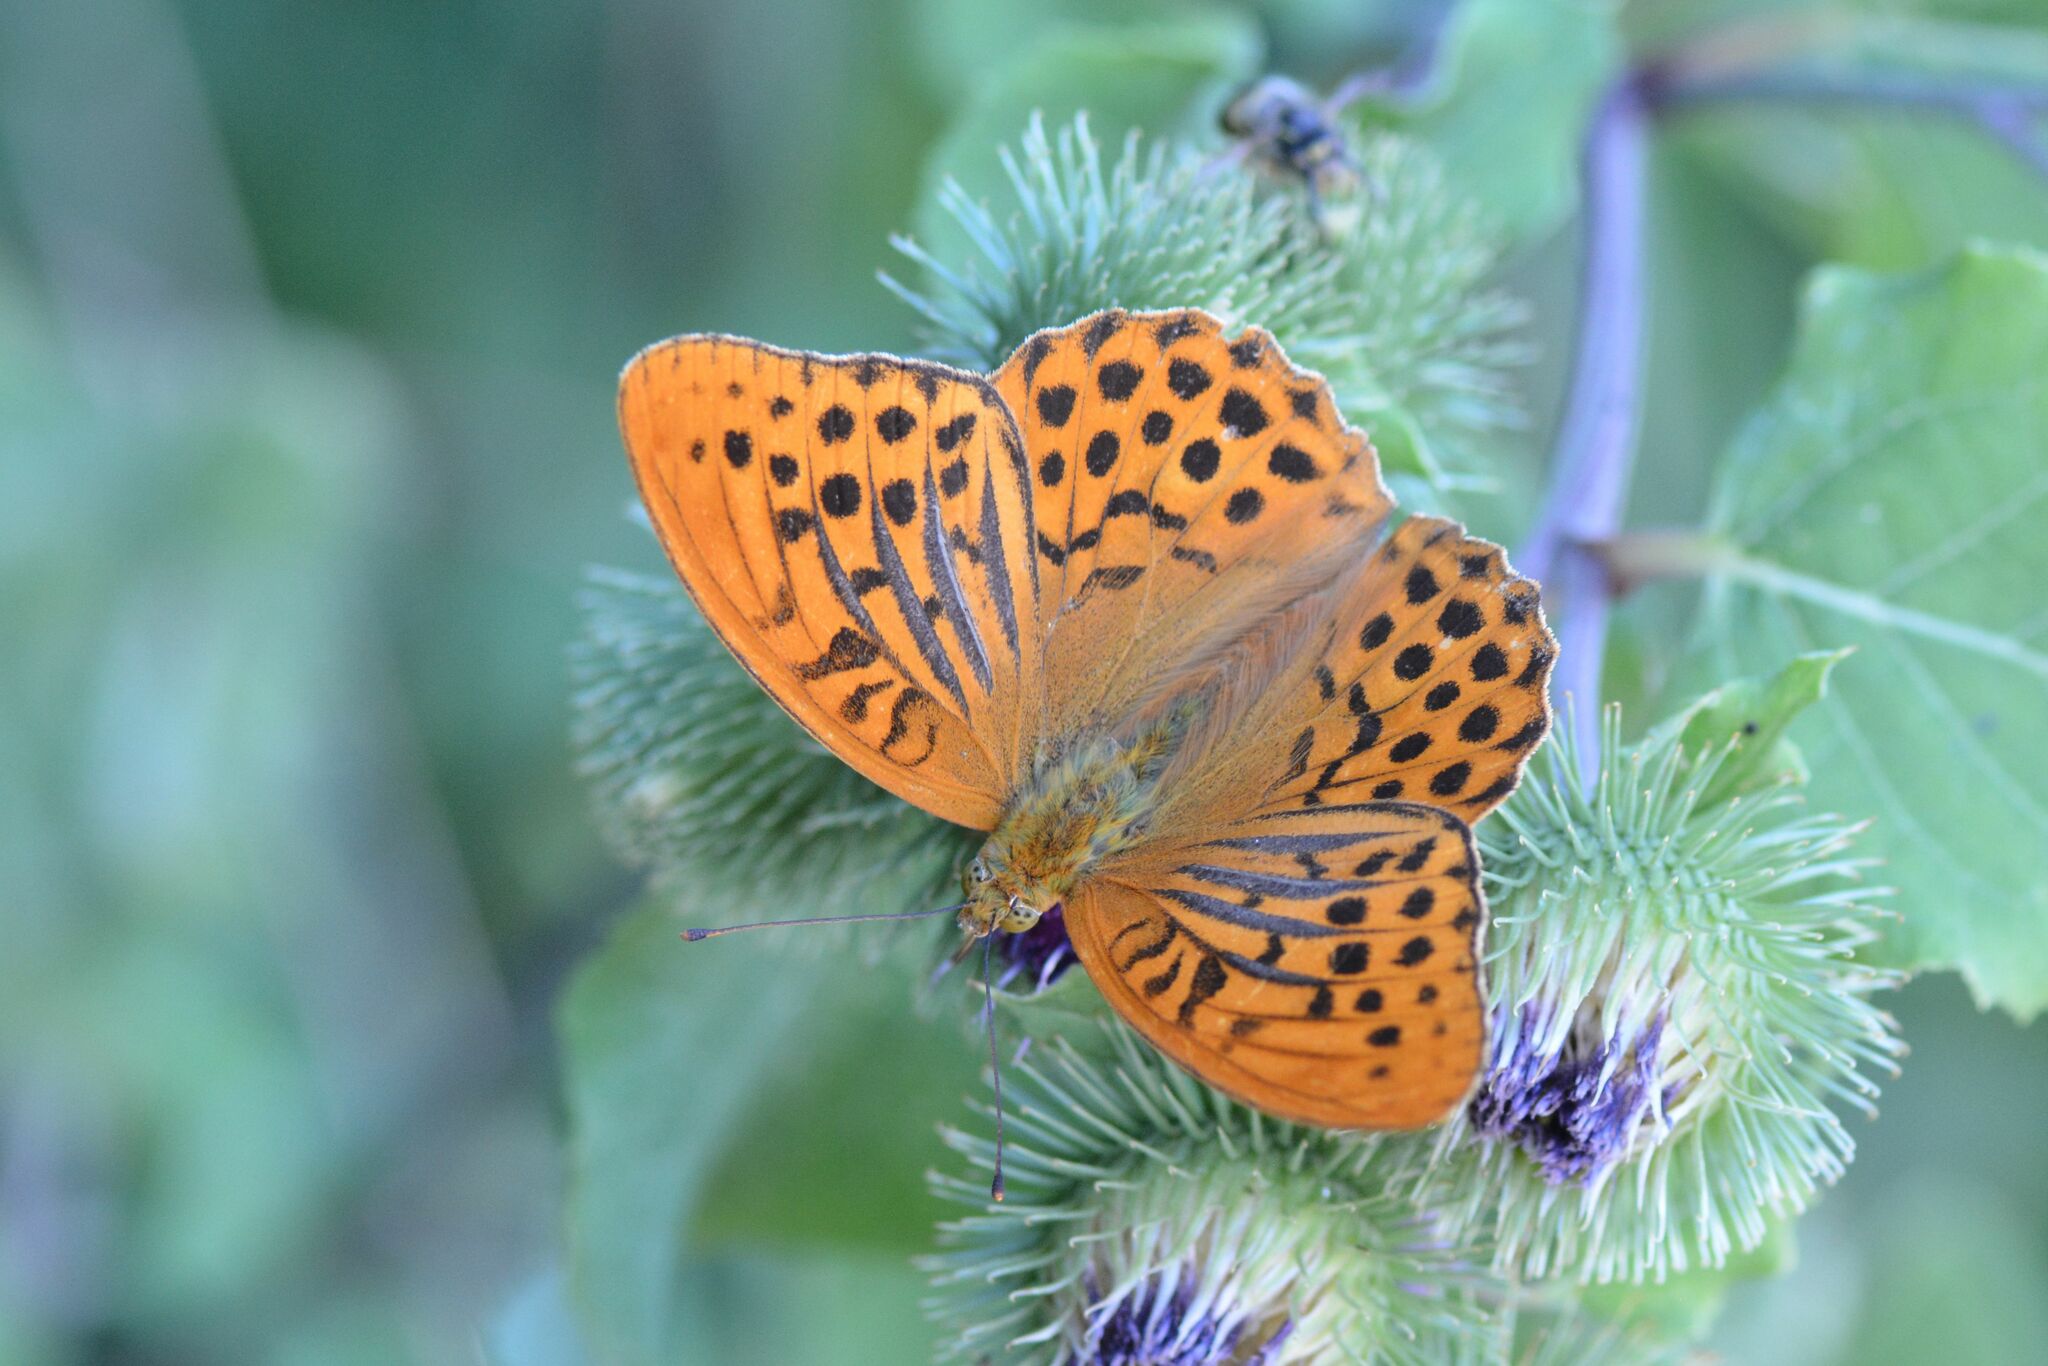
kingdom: Animalia
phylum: Arthropoda
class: Insecta
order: Lepidoptera
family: Nymphalidae
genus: Argynnis
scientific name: Argynnis paphia
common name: Silver-washed fritillary
